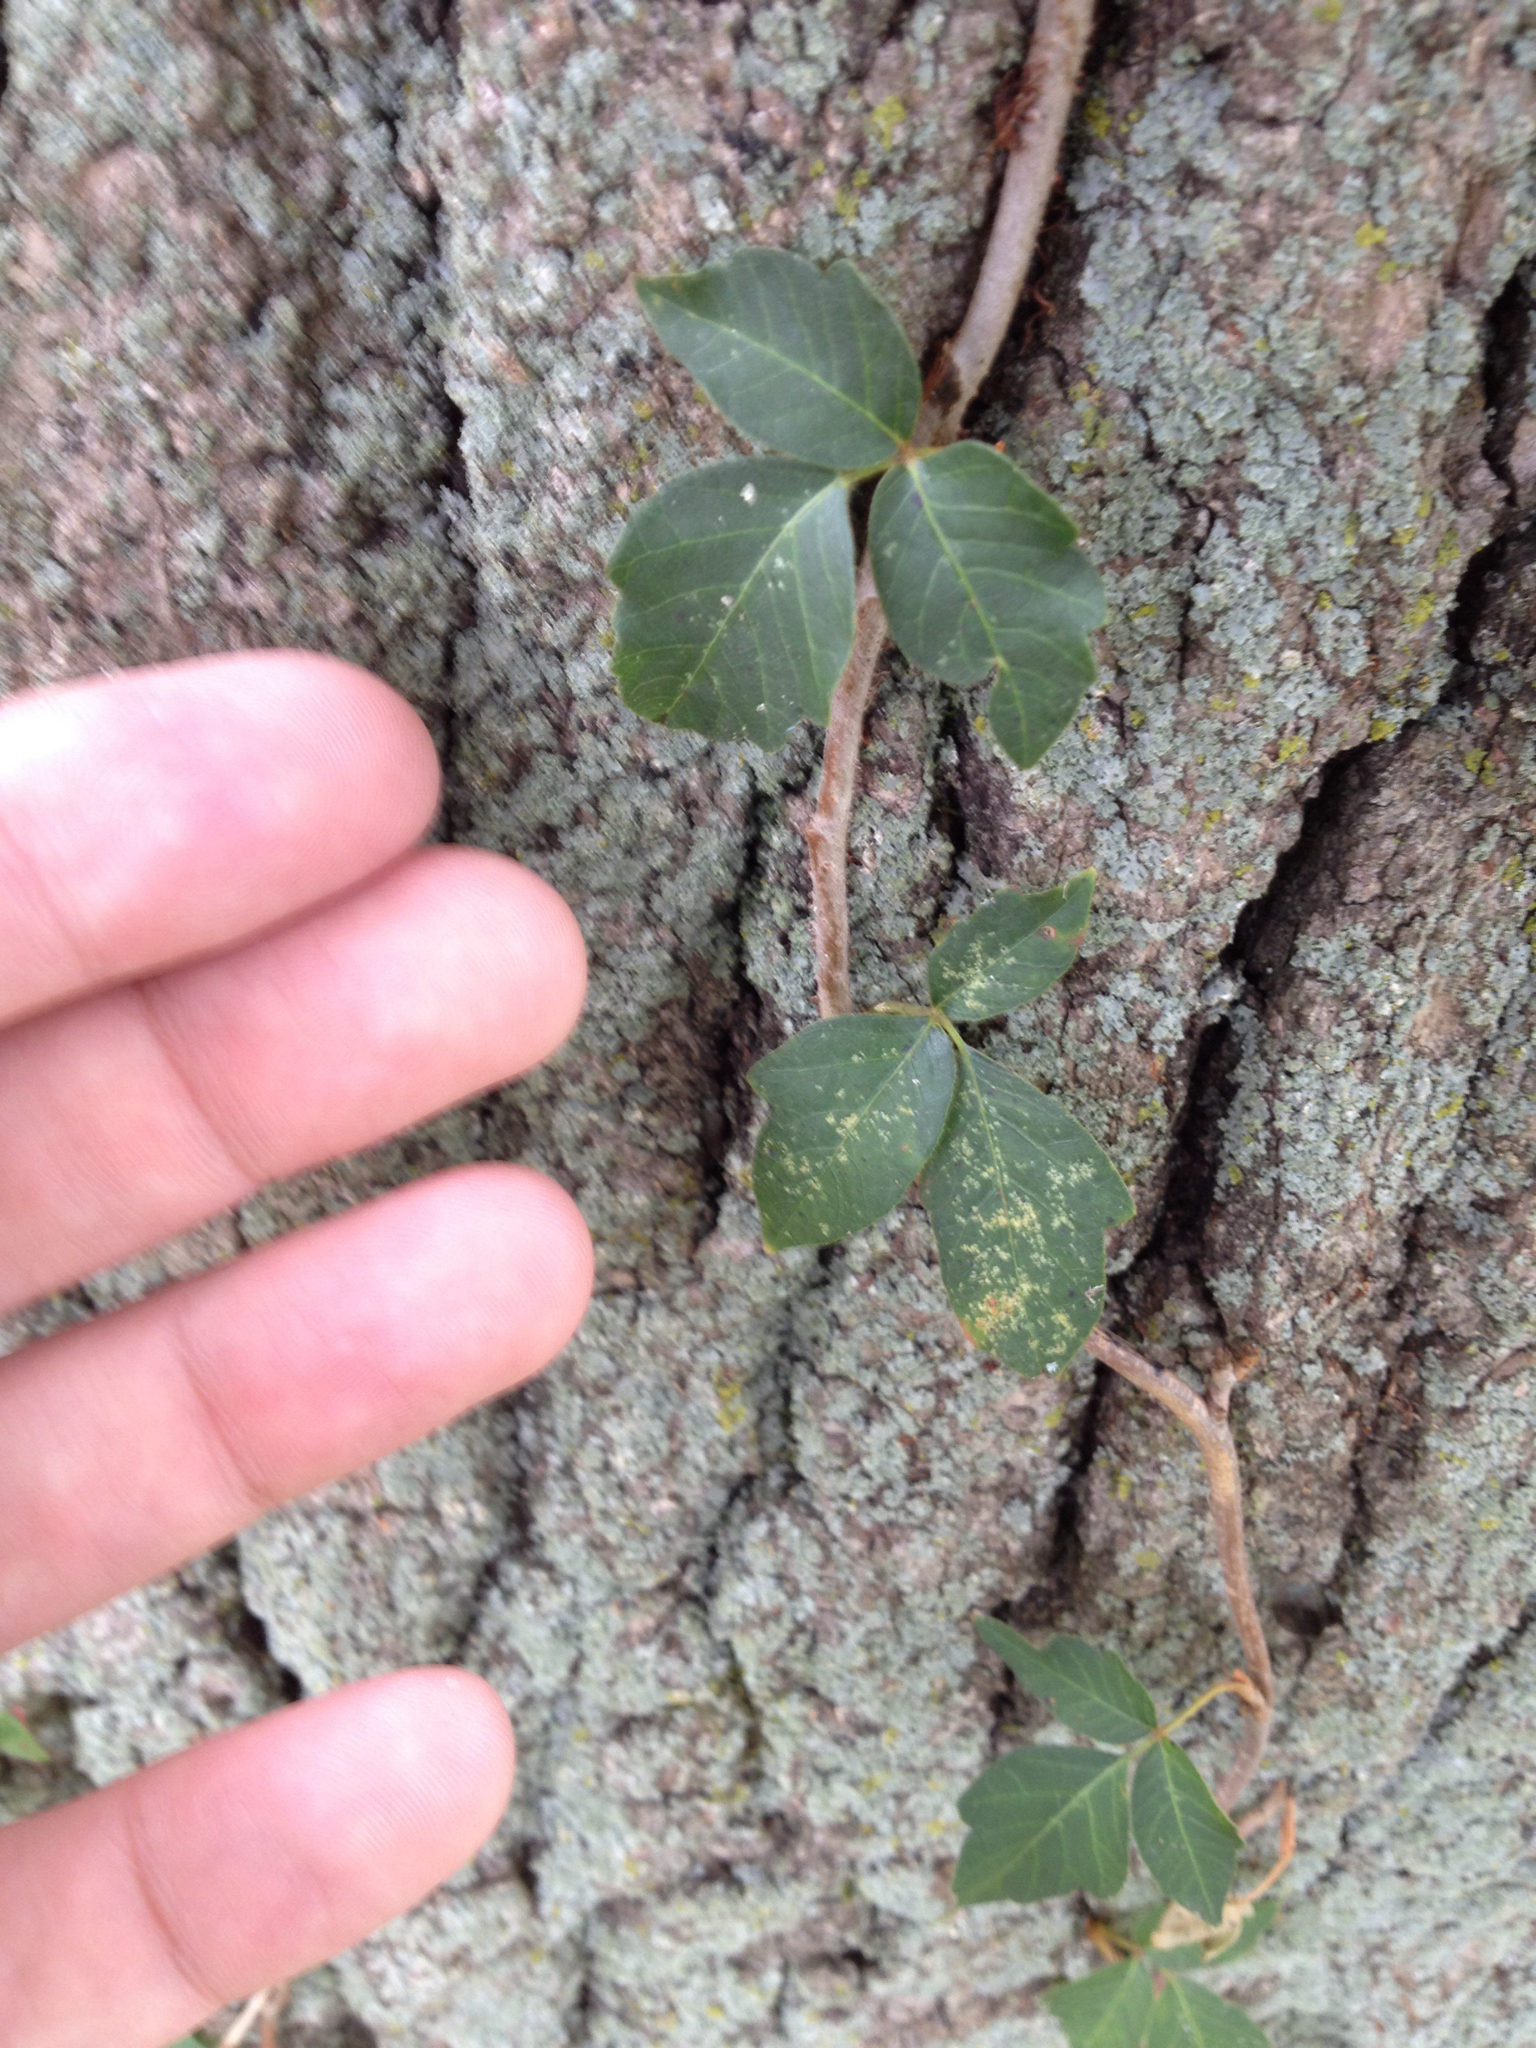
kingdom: Plantae
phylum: Tracheophyta
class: Magnoliopsida
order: Sapindales
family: Anacardiaceae
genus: Toxicodendron
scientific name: Toxicodendron radicans
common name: Poison ivy
